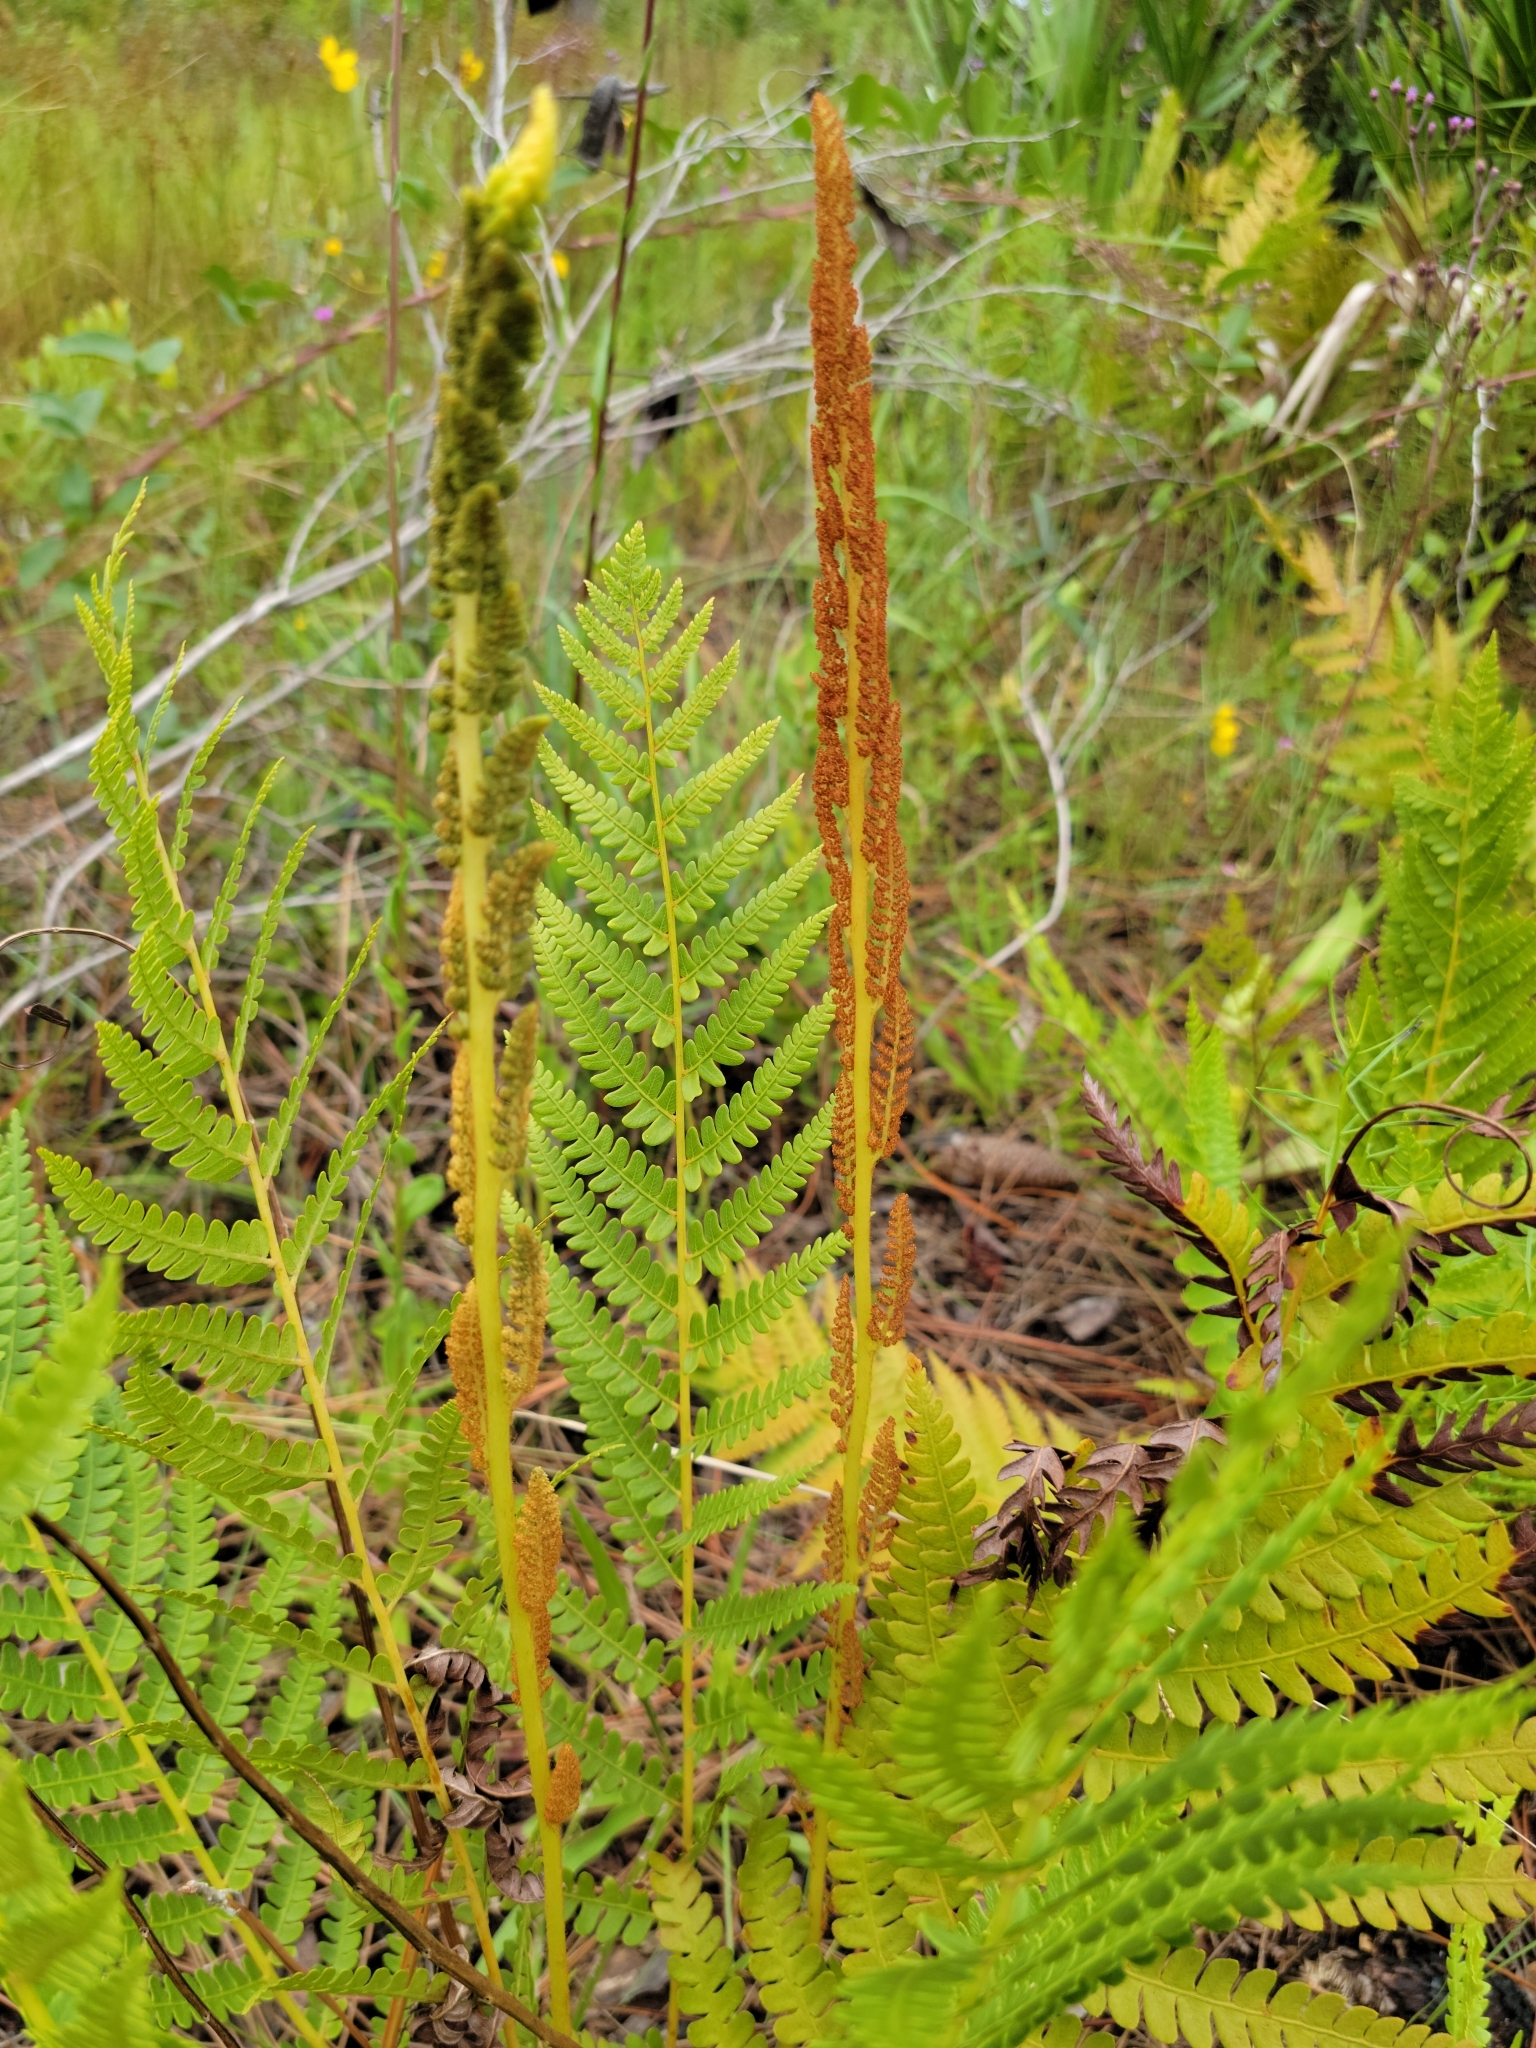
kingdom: Plantae
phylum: Tracheophyta
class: Polypodiopsida
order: Osmundales
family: Osmundaceae
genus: Osmundastrum
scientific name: Osmundastrum cinnamomeum
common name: Cinnamon fern
